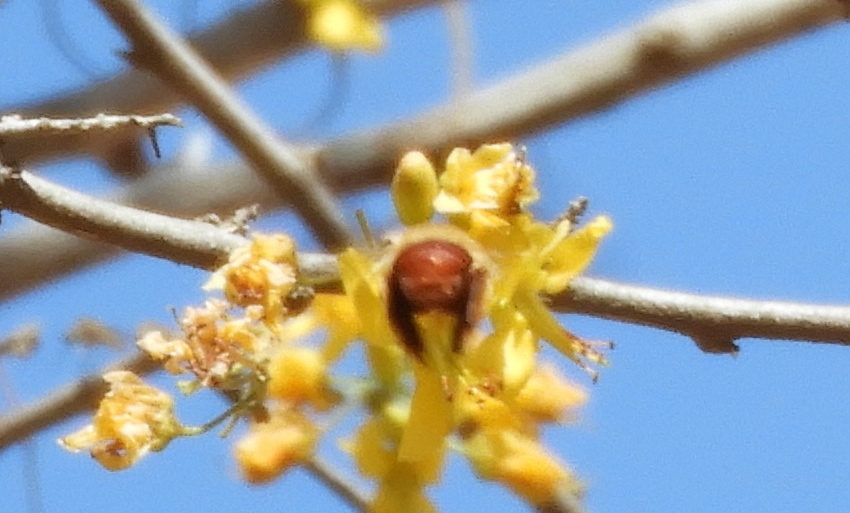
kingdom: Animalia
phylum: Arthropoda
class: Insecta
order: Hymenoptera
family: Apidae
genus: Centris
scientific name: Centris
